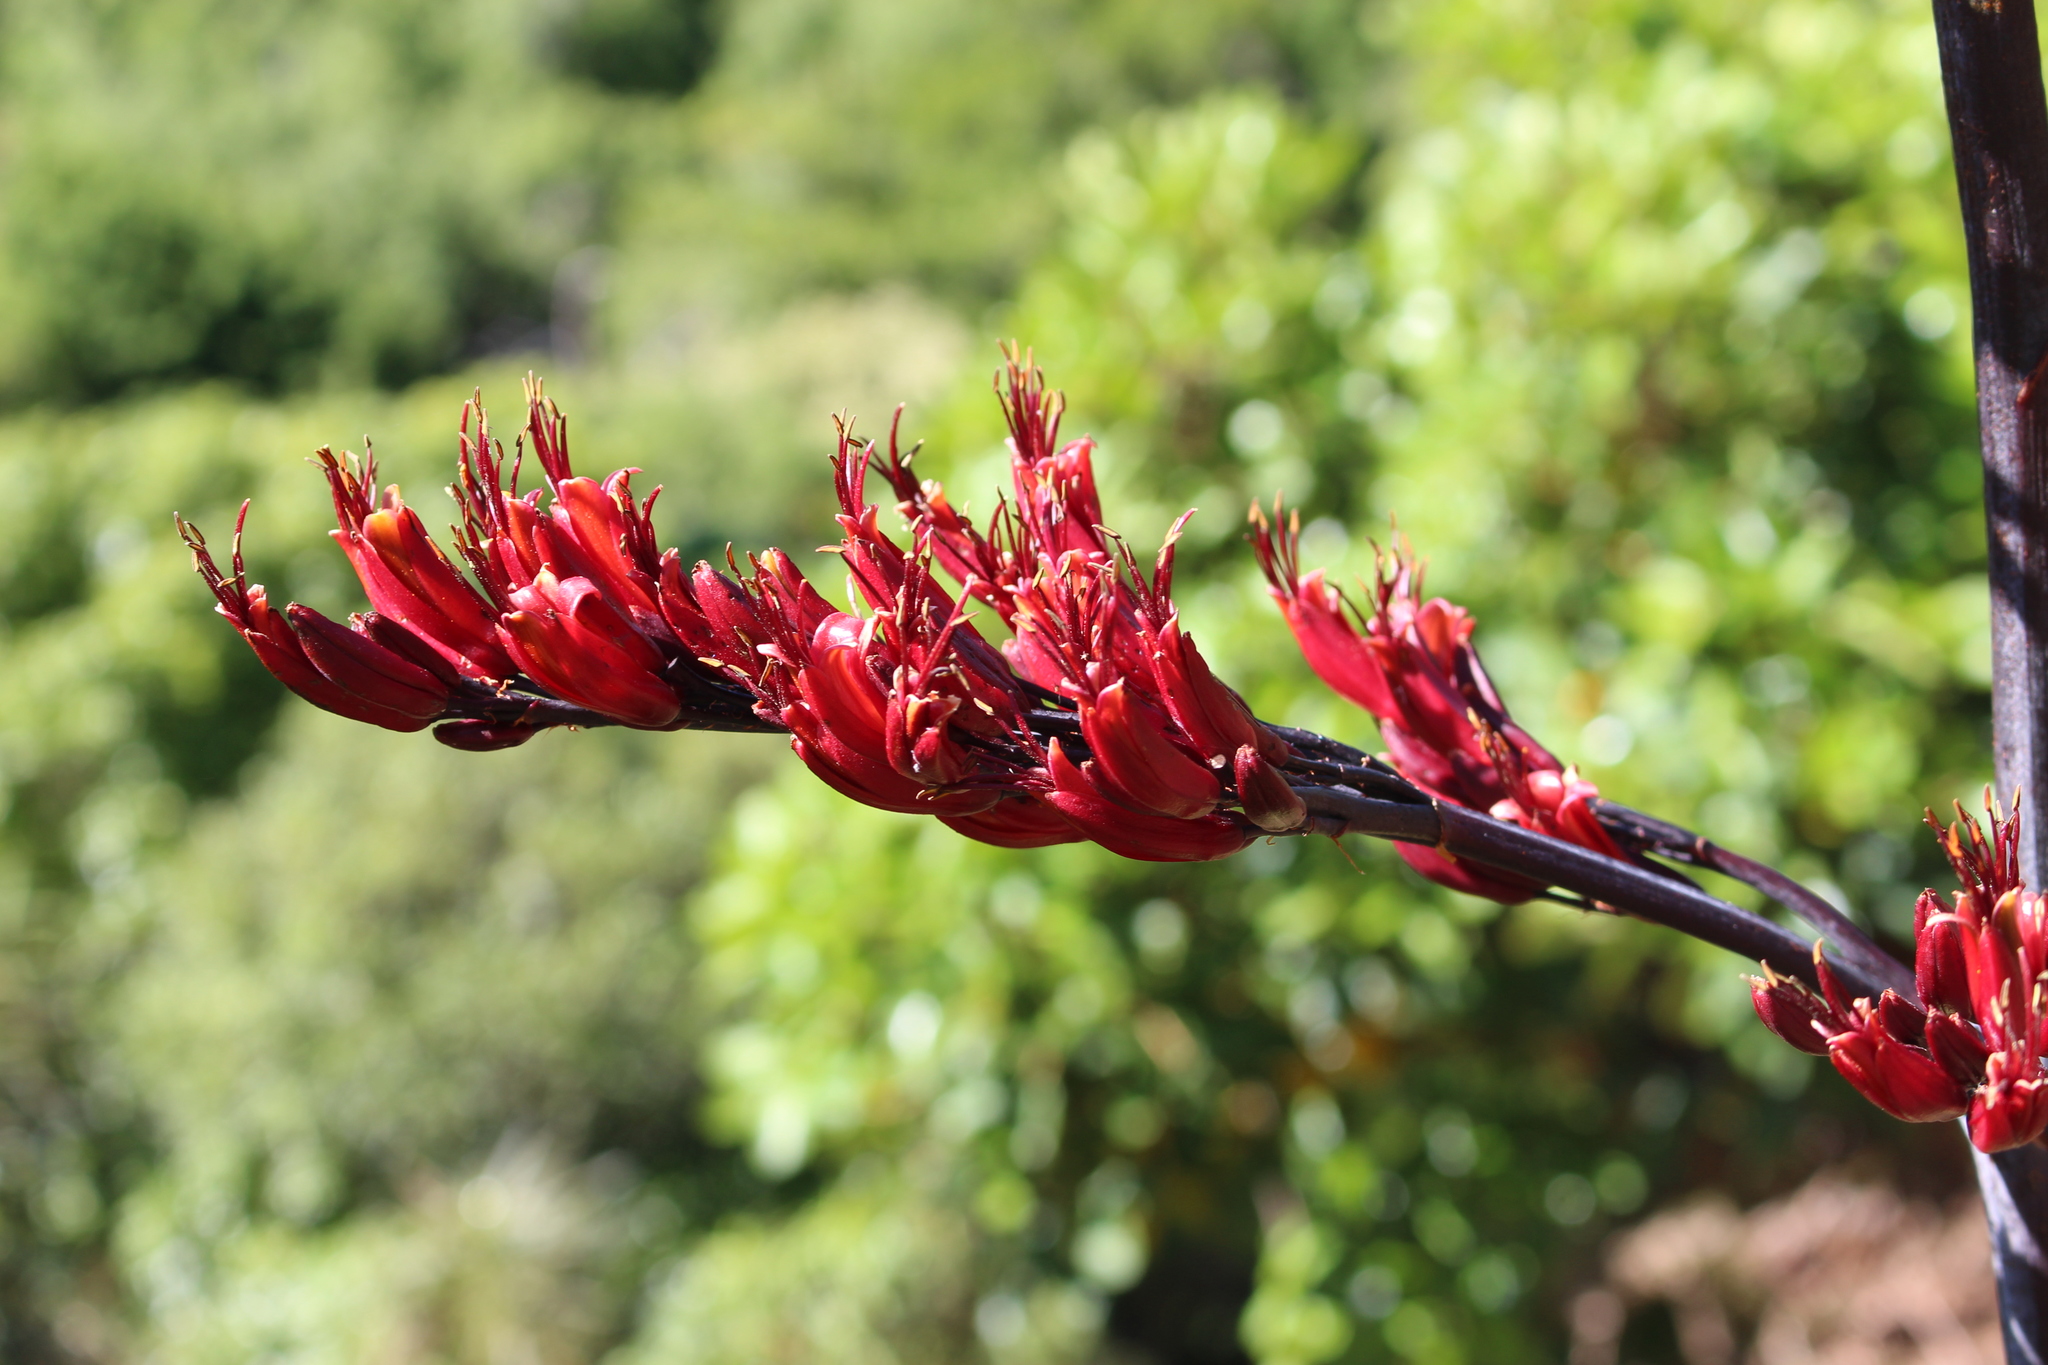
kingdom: Plantae
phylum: Tracheophyta
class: Liliopsida
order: Asparagales
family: Asphodelaceae
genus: Phormium
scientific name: Phormium tenax
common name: New zealand flax
